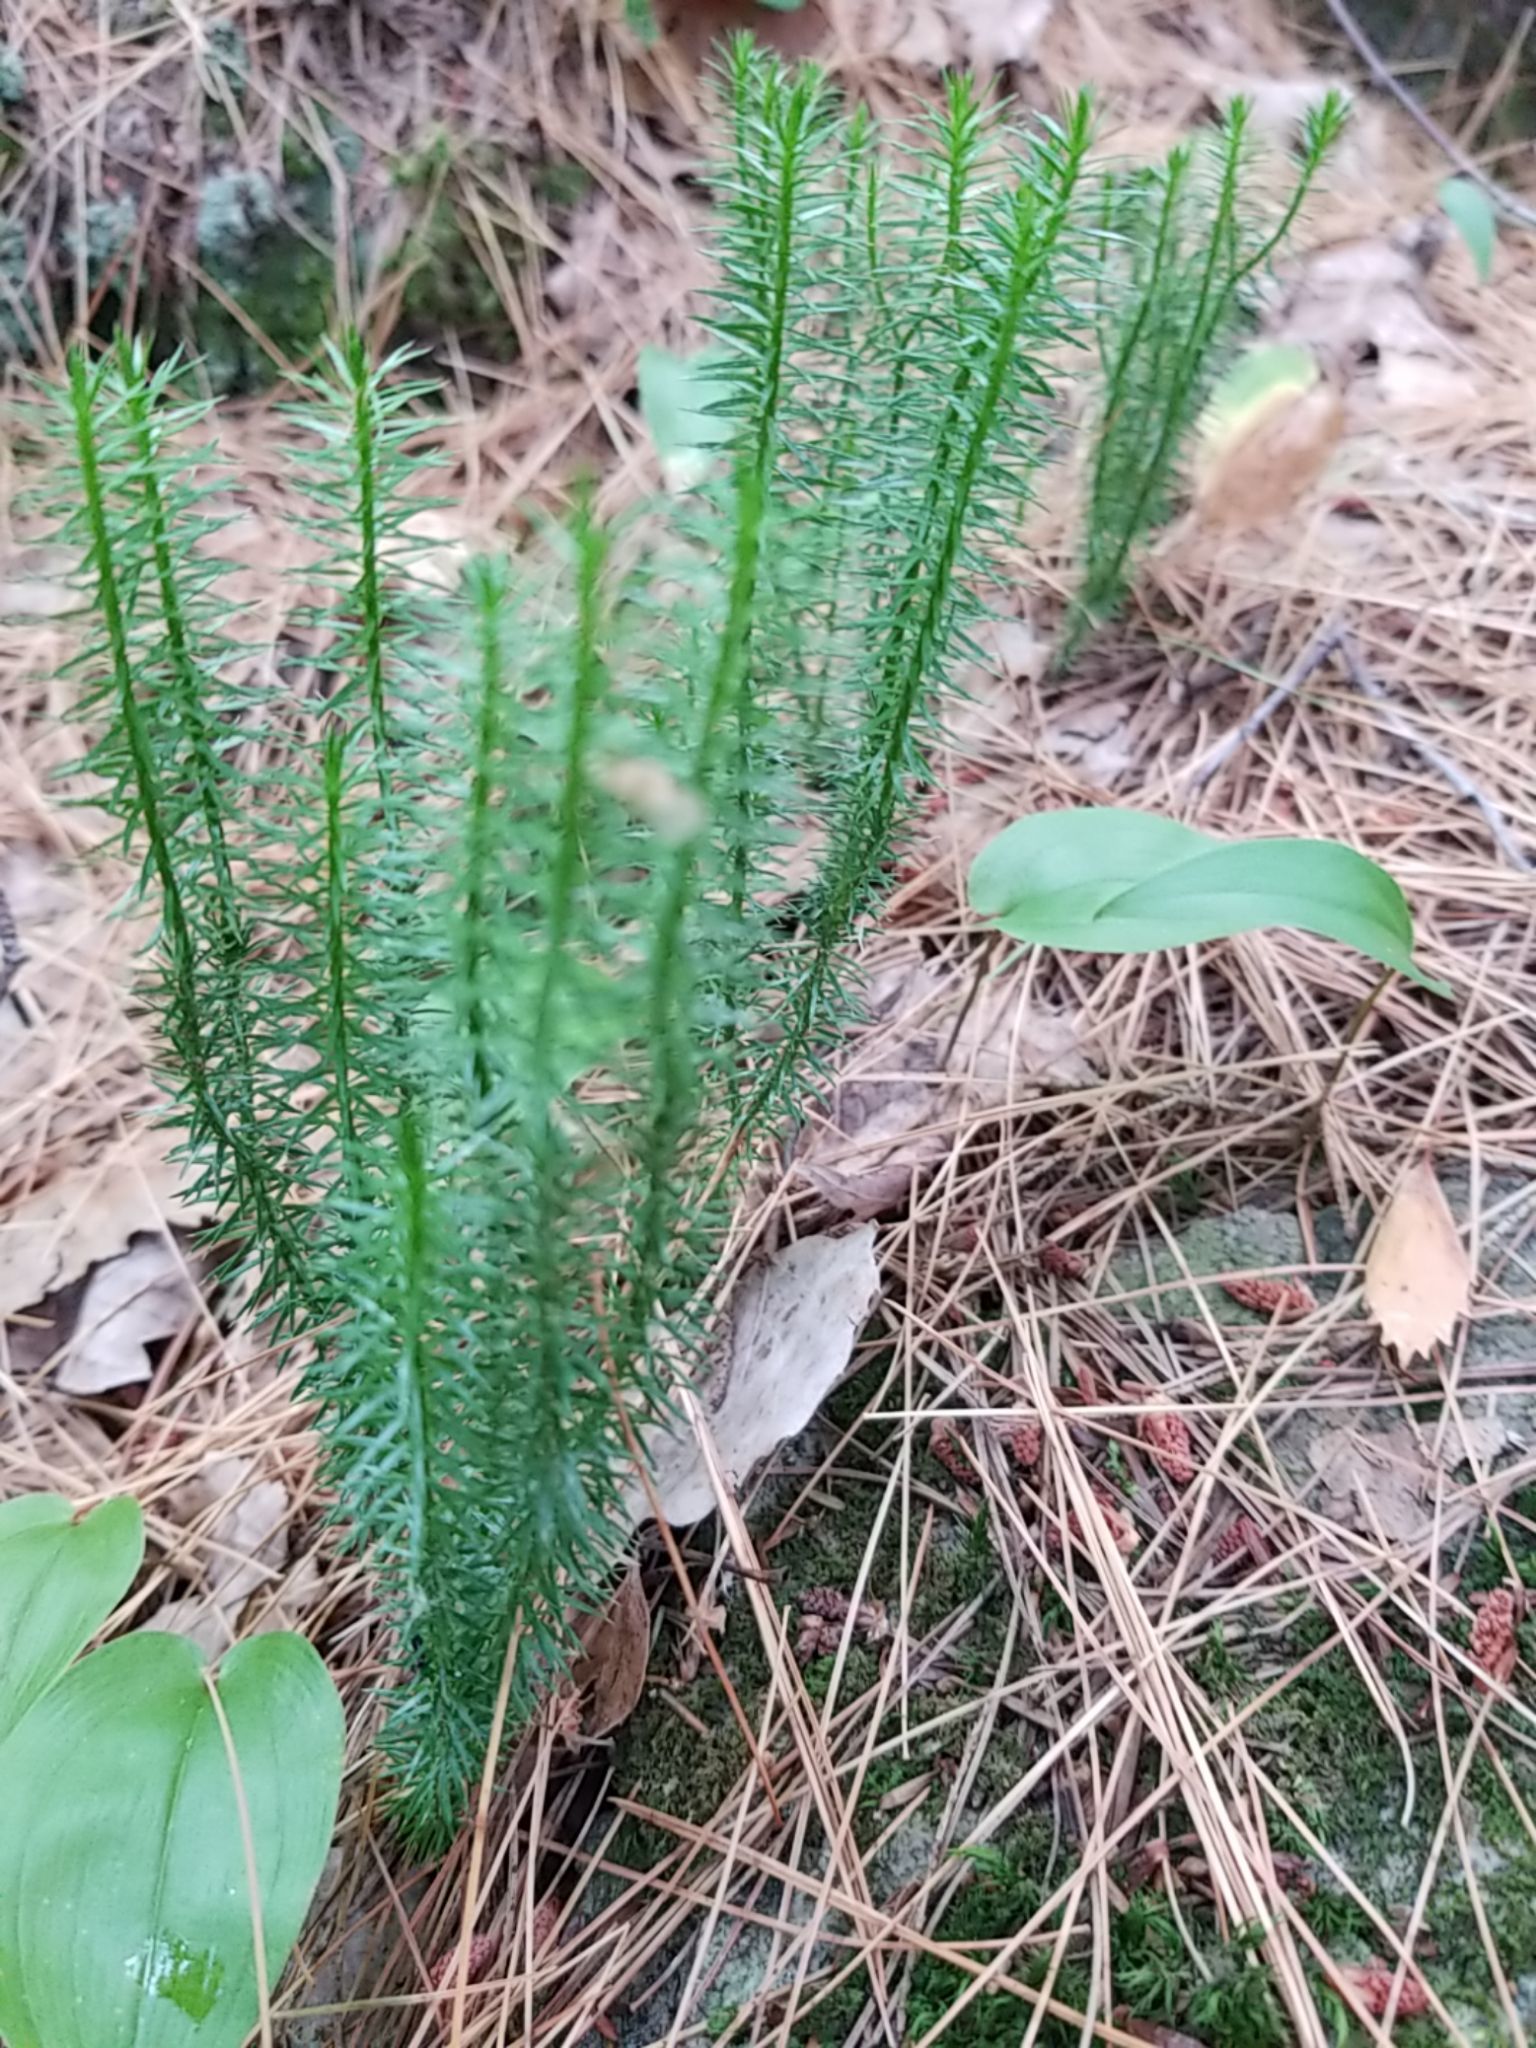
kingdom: Plantae
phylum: Tracheophyta
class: Lycopodiopsida
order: Lycopodiales
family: Lycopodiaceae
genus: Spinulum
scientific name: Spinulum annotinum
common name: Interrupted club-moss
